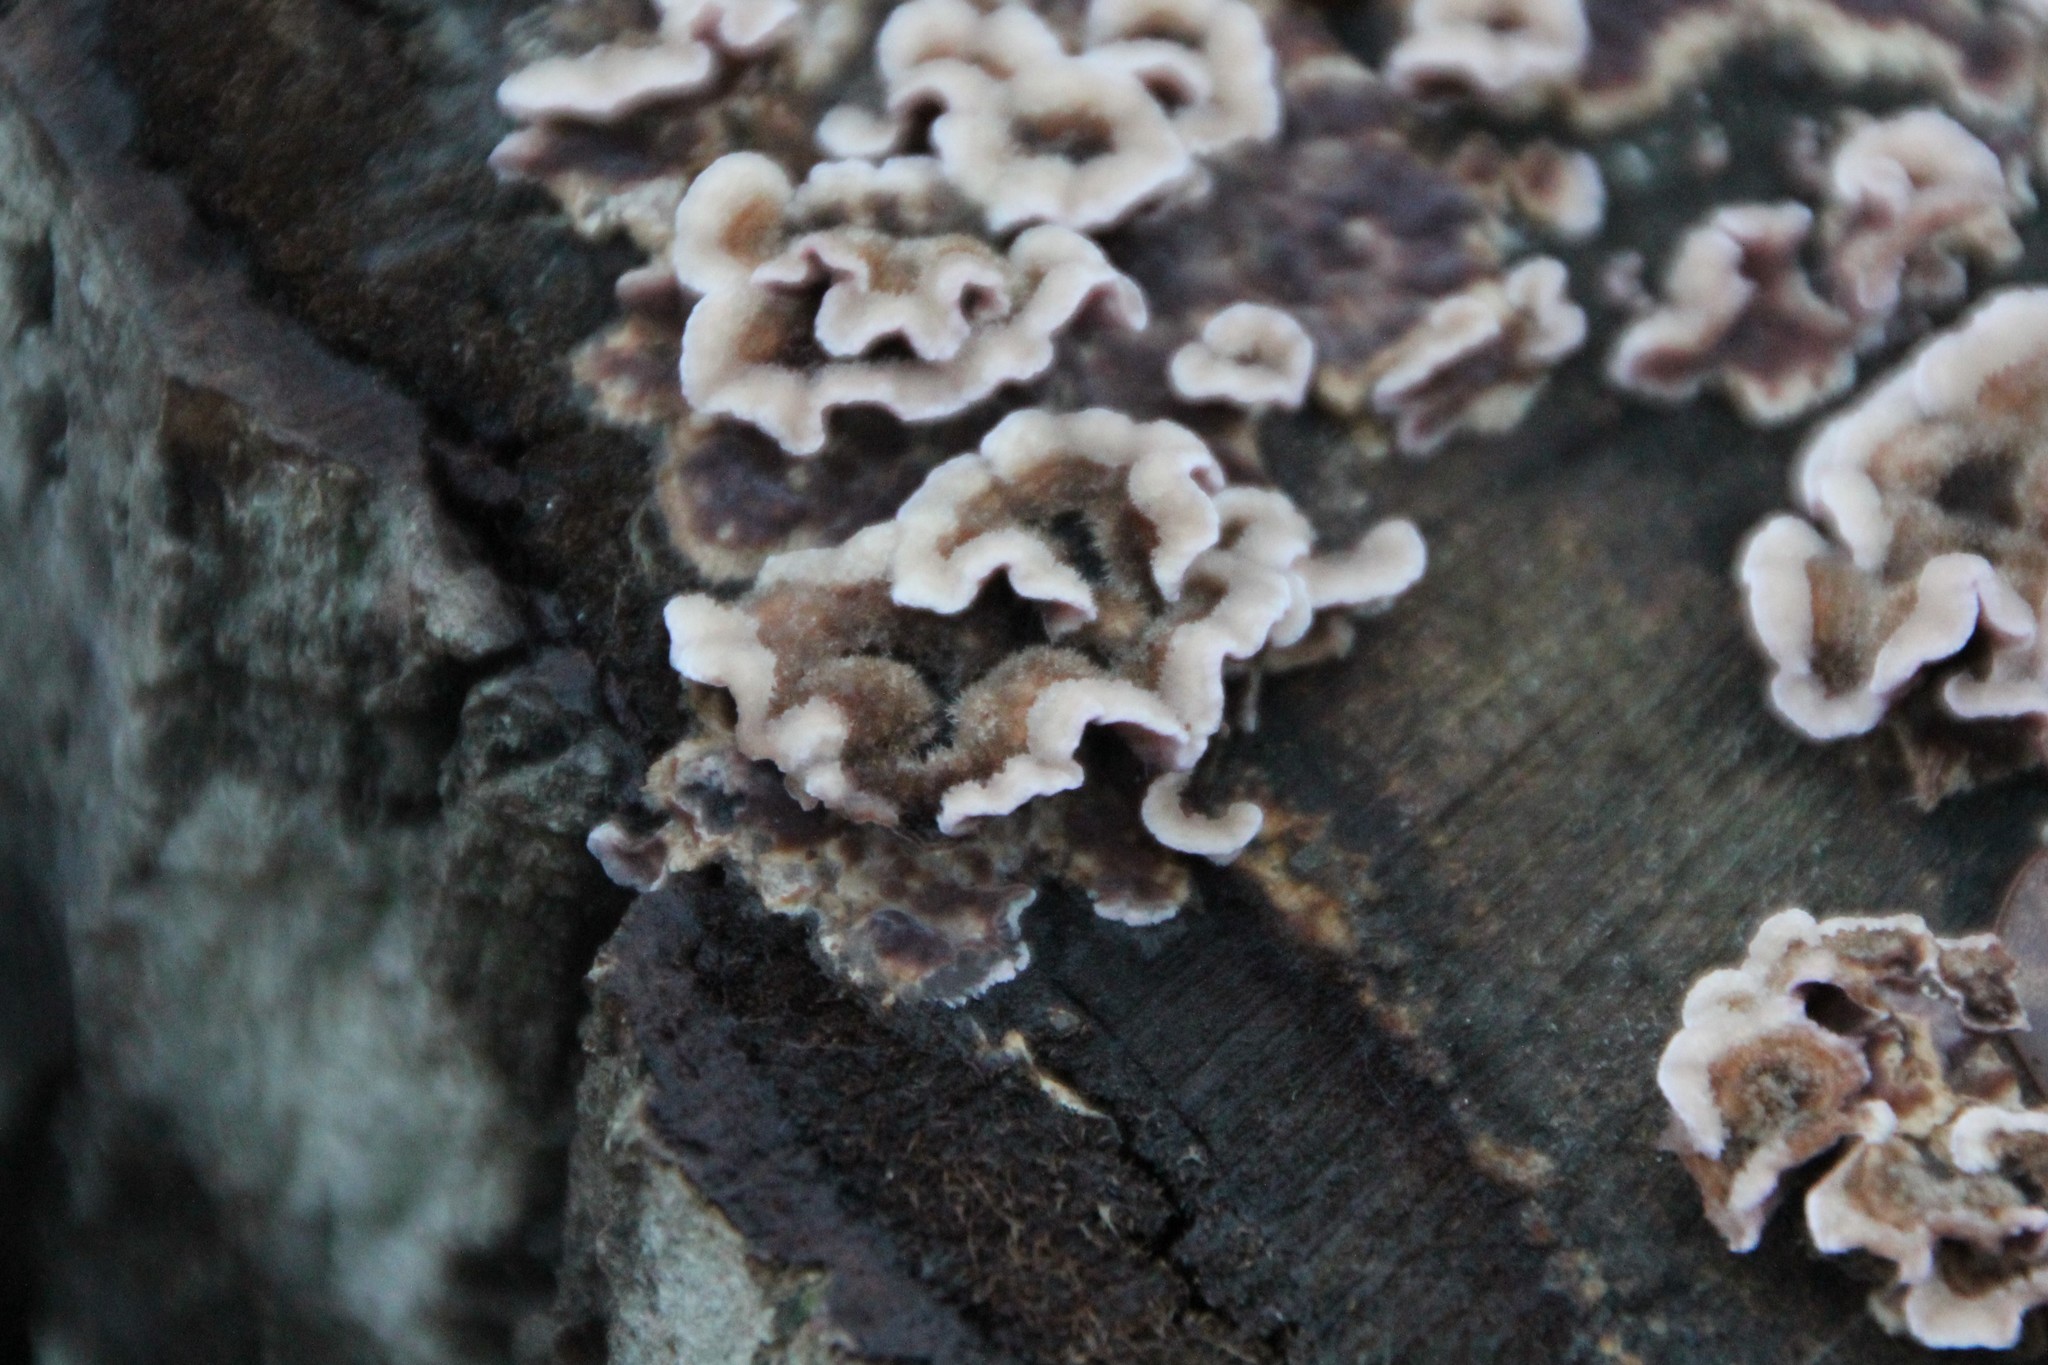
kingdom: Fungi
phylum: Basidiomycota
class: Agaricomycetes
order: Agaricales
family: Cyphellaceae
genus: Chondrostereum
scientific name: Chondrostereum purpureum
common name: Silver leaf disease
